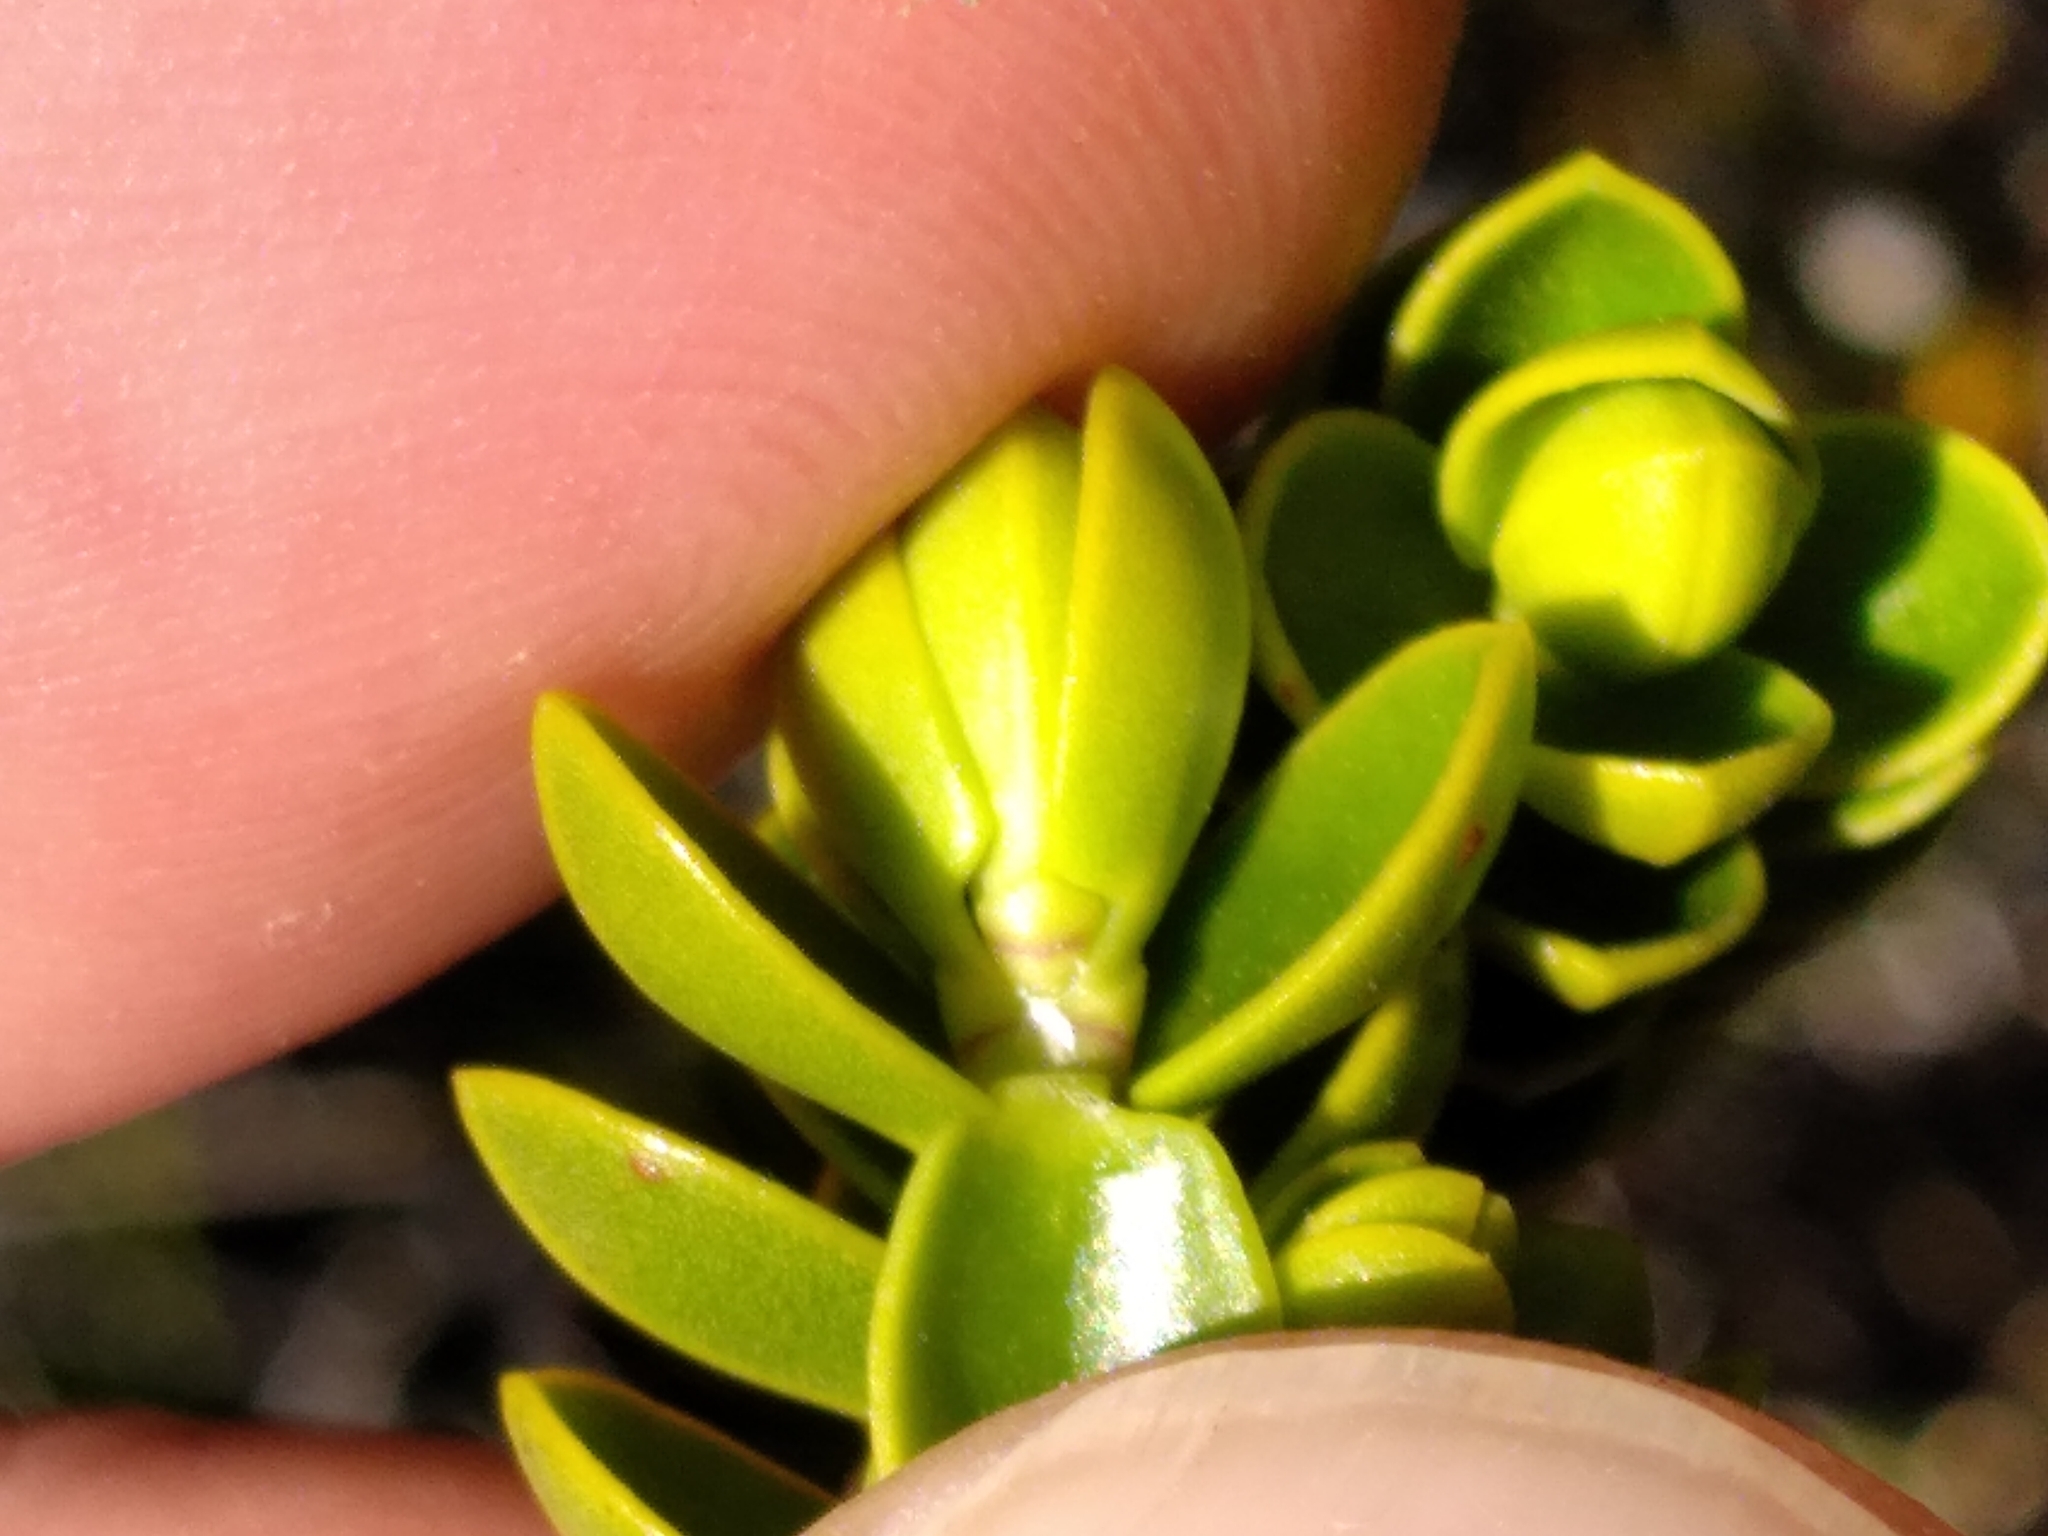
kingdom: Plantae
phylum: Tracheophyta
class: Magnoliopsida
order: Lamiales
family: Plantaginaceae
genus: Veronica
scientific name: Veronica odora
